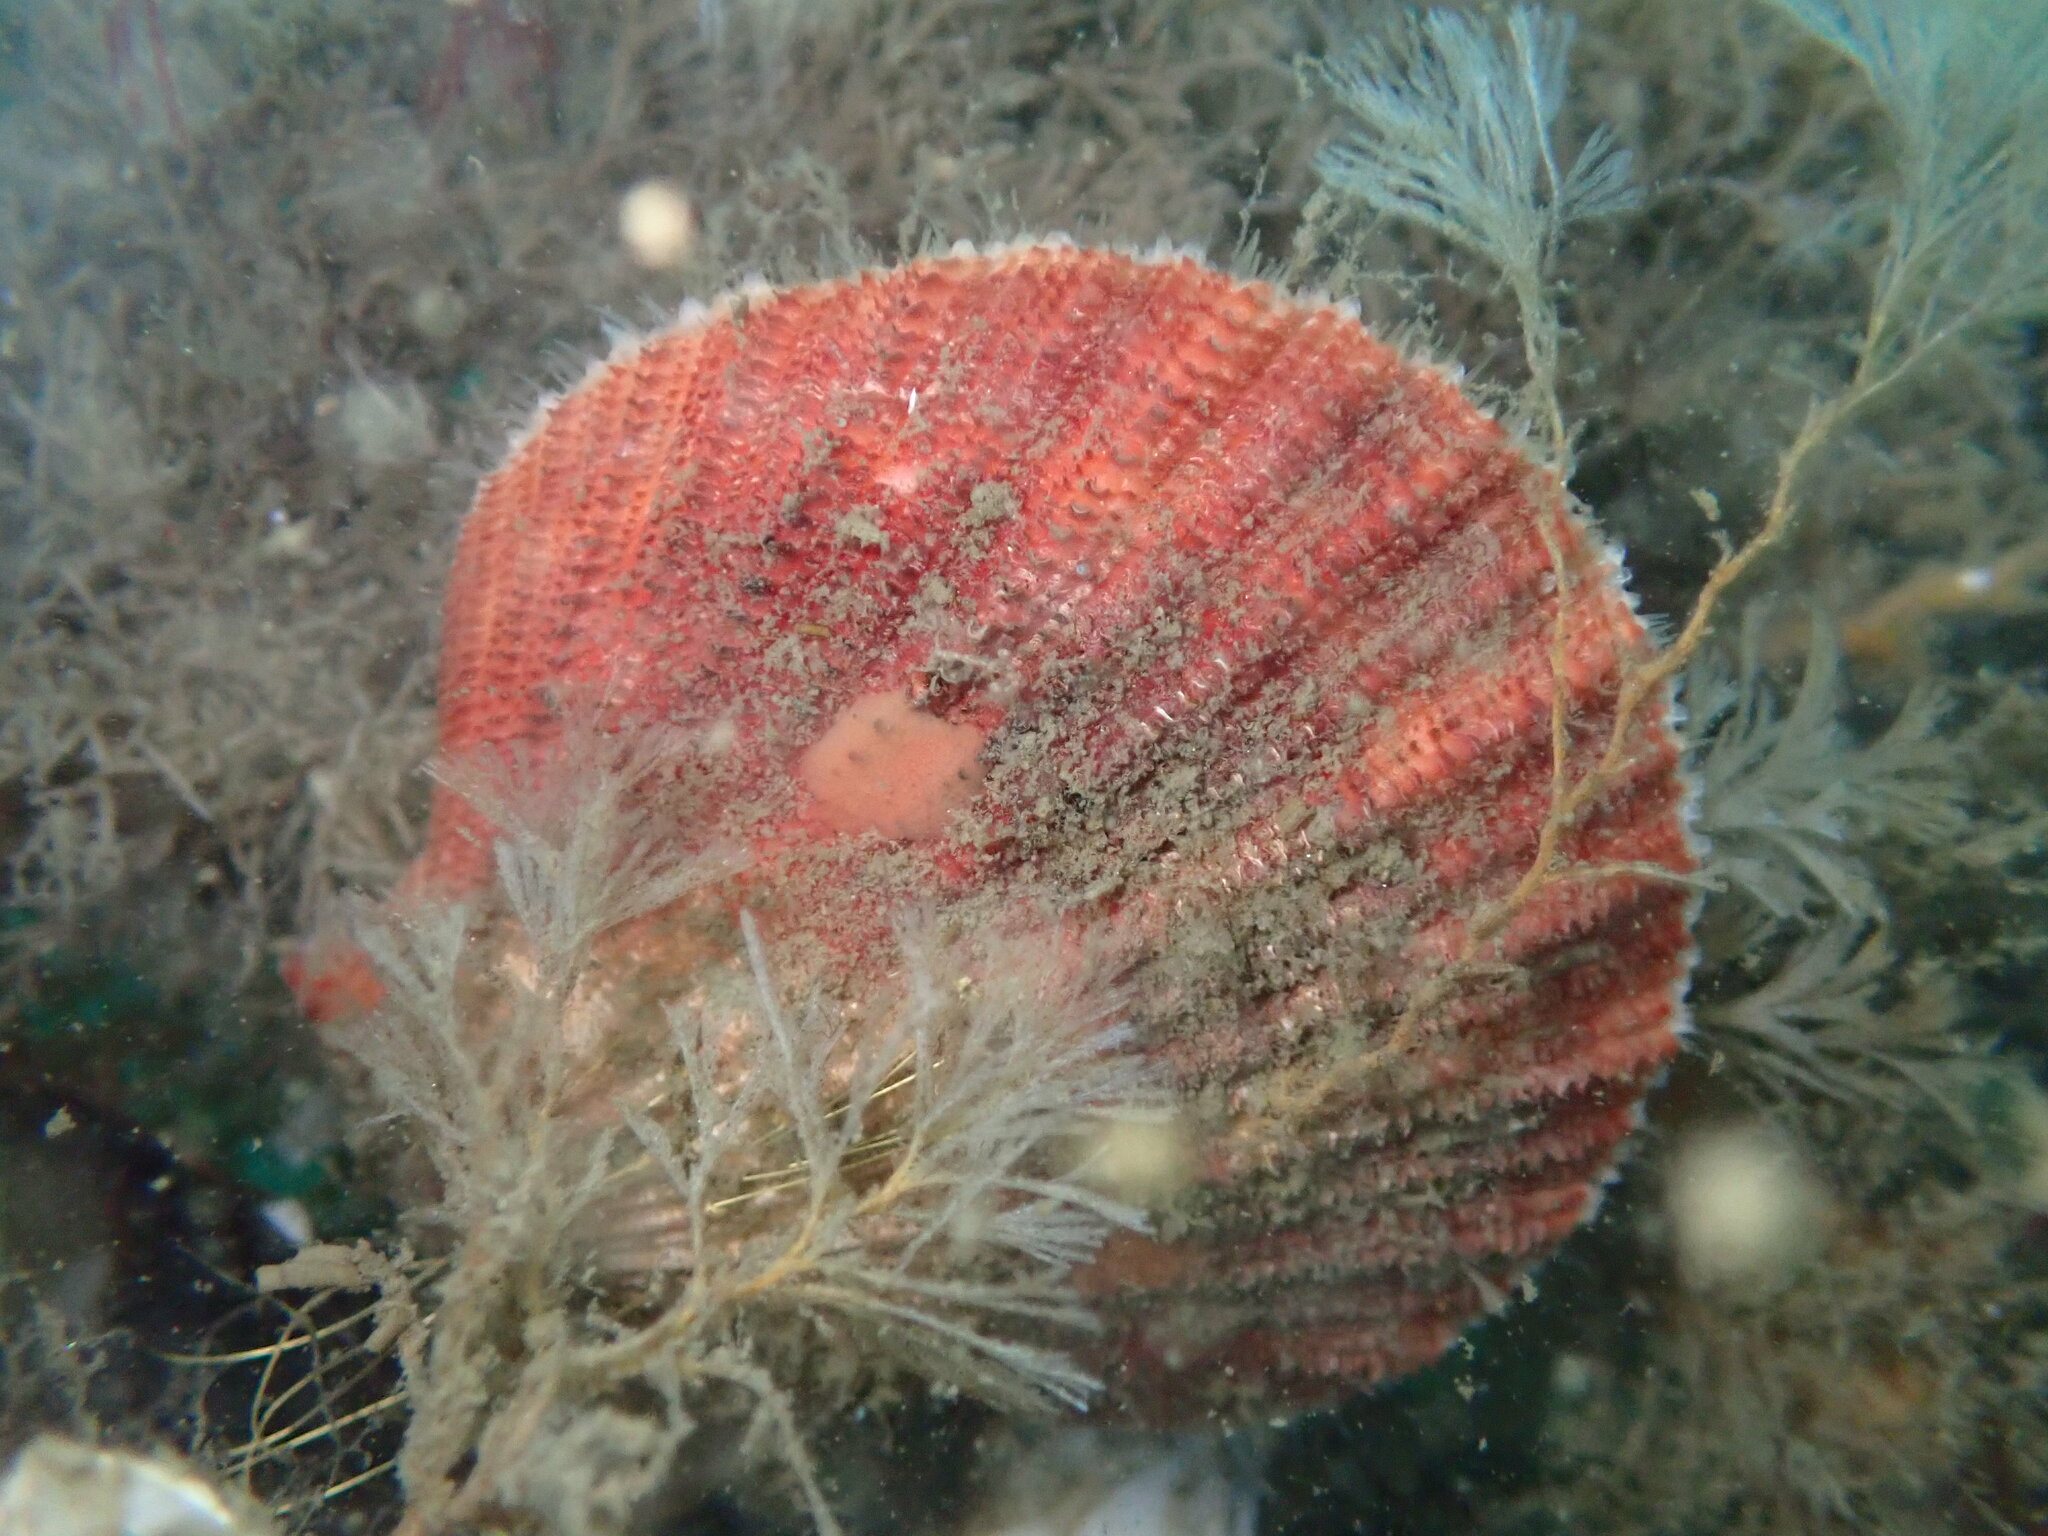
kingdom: Animalia
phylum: Mollusca
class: Bivalvia
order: Pectinida
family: Pectinidae
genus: Chlamys
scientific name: Chlamys hastata
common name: Spear scallop
